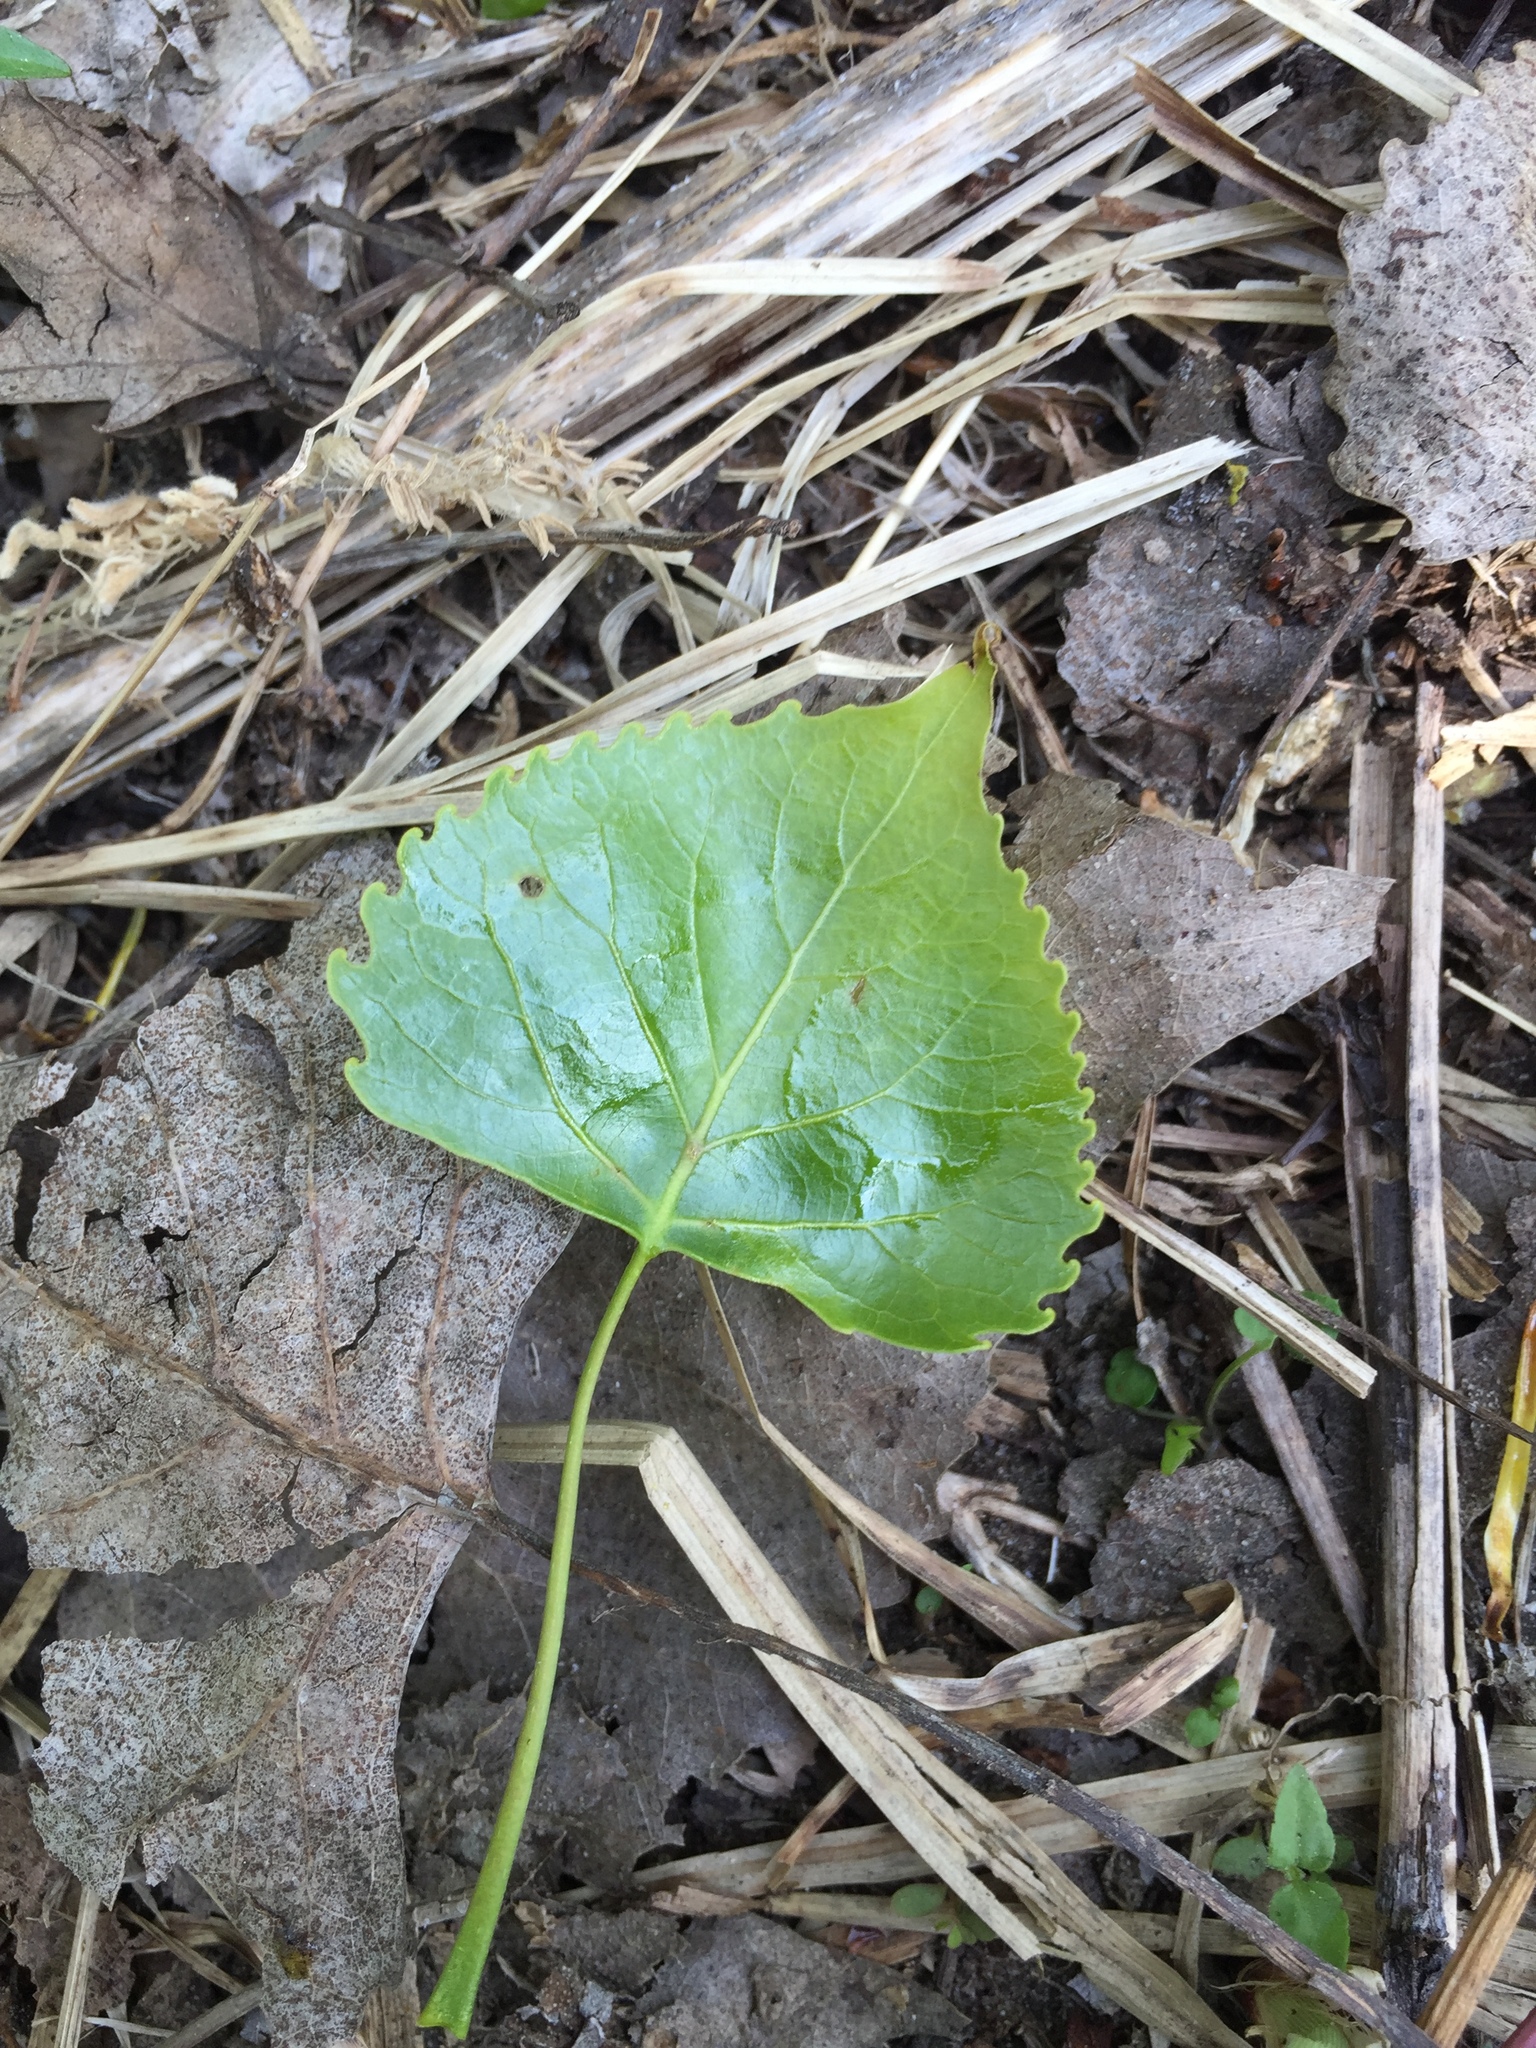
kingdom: Plantae
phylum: Tracheophyta
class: Magnoliopsida
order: Malpighiales
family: Salicaceae
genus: Populus
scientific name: Populus deltoides
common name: Eastern cottonwood
